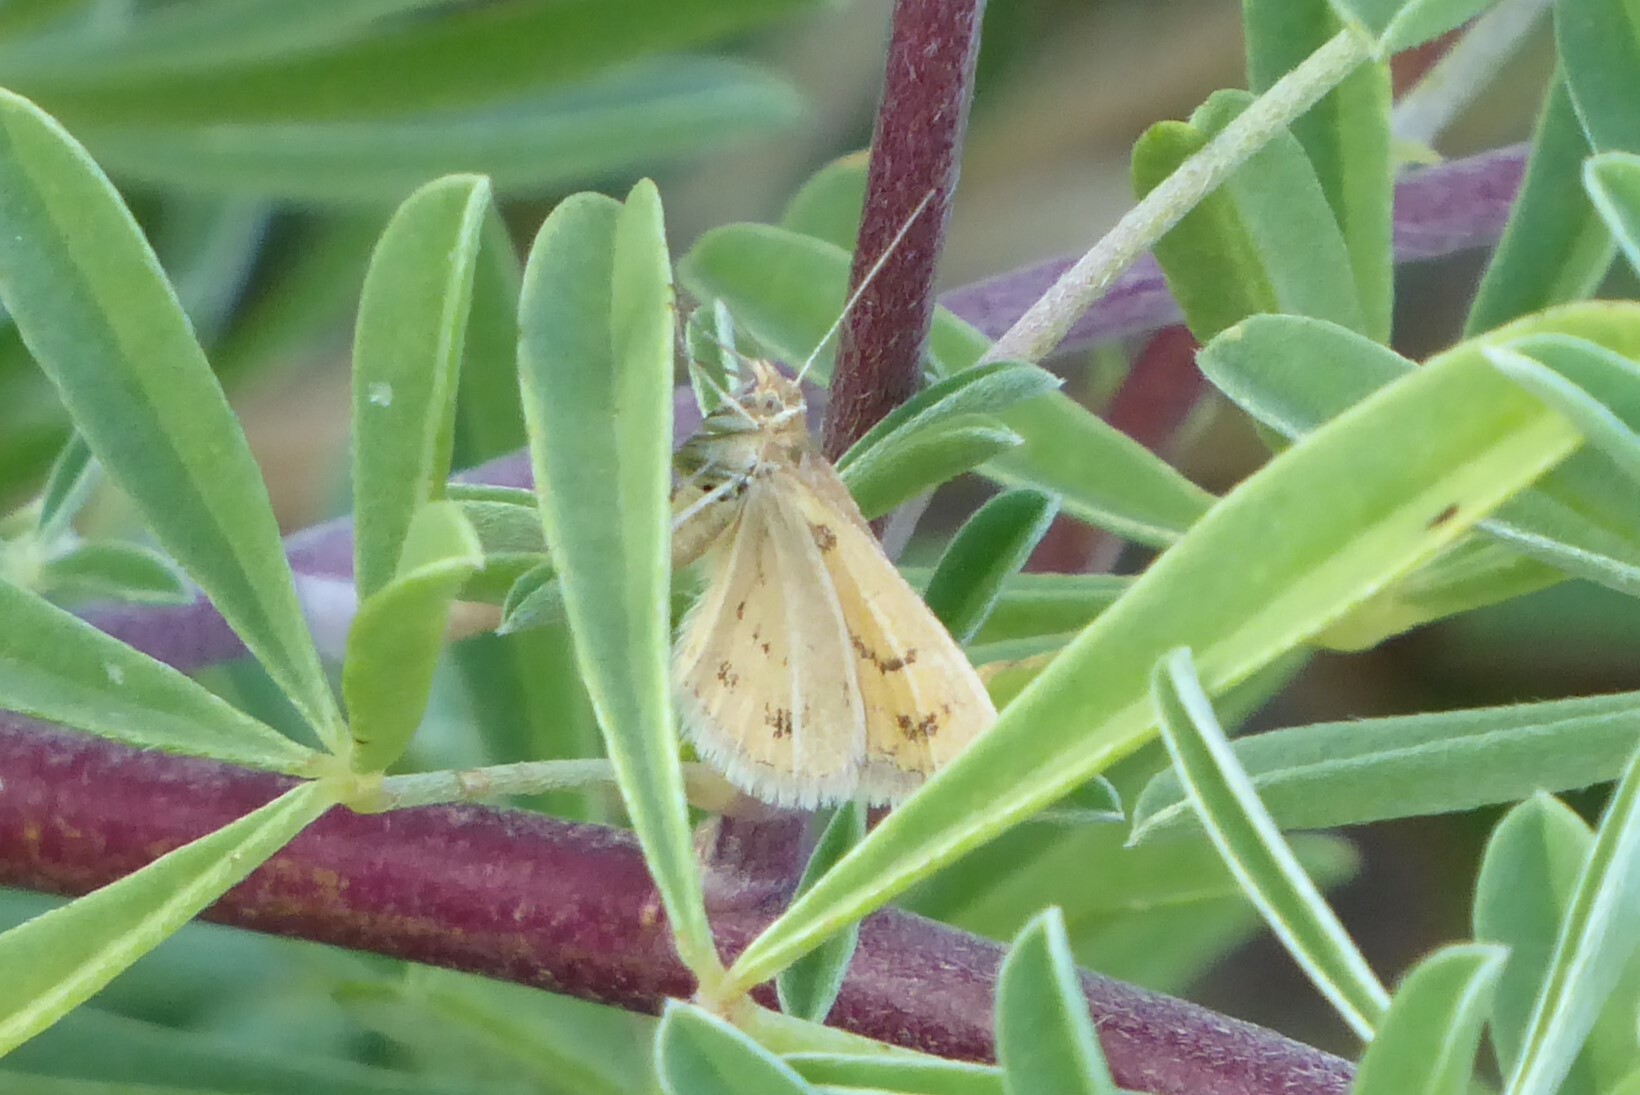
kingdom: Animalia
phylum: Arthropoda
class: Insecta
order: Lepidoptera
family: Geometridae
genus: Asaphodes
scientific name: Asaphodes abrogata
